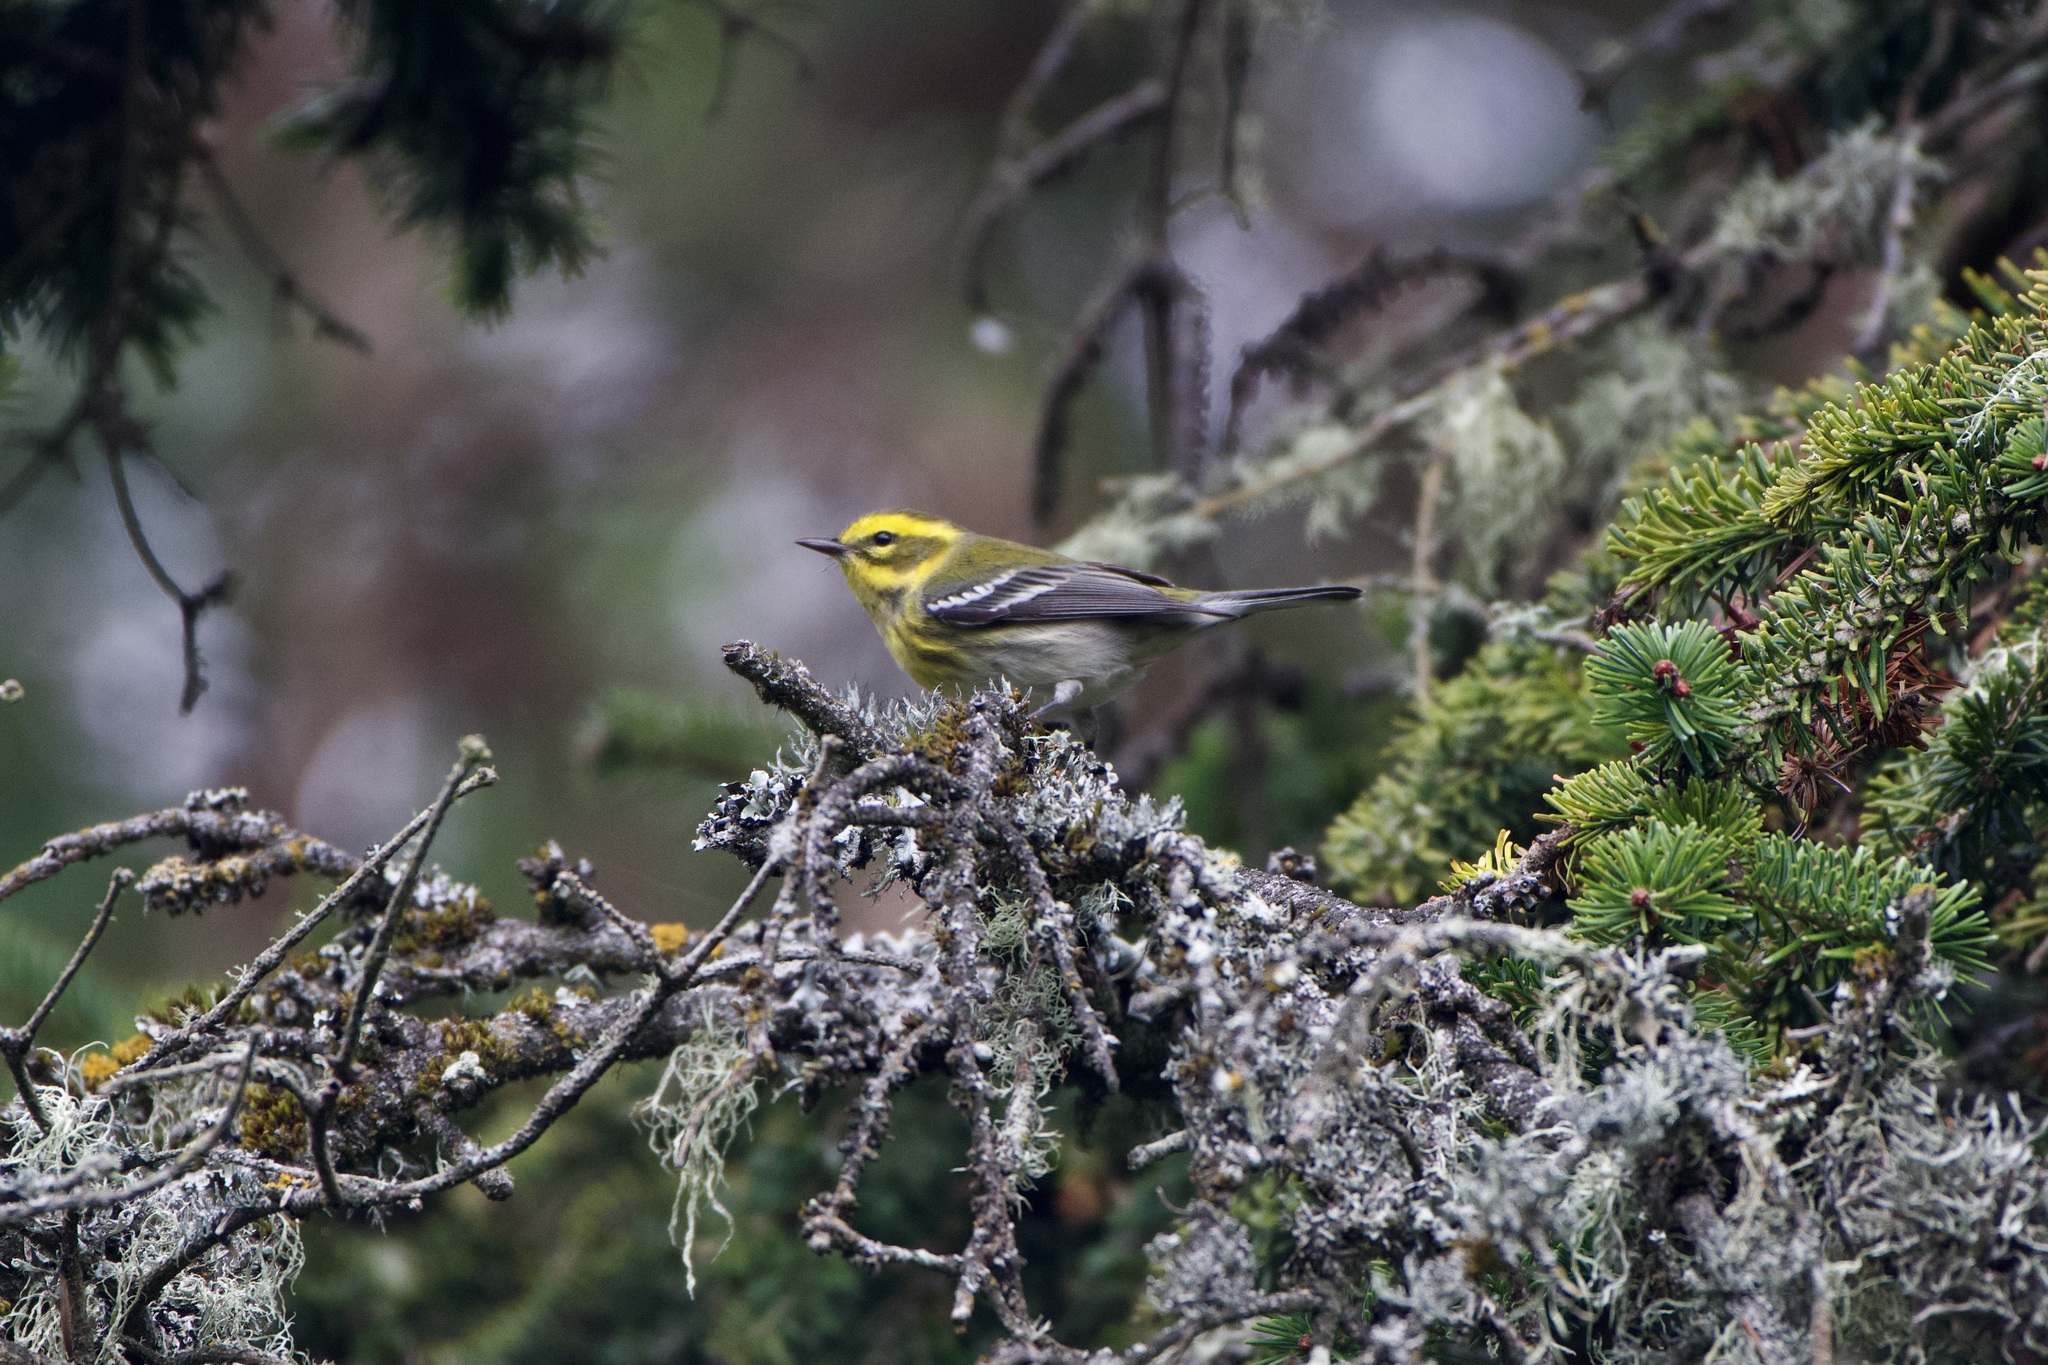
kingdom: Animalia
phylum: Chordata
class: Aves
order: Passeriformes
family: Parulidae
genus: Setophaga
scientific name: Setophaga townsendi
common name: Townsend's warbler
